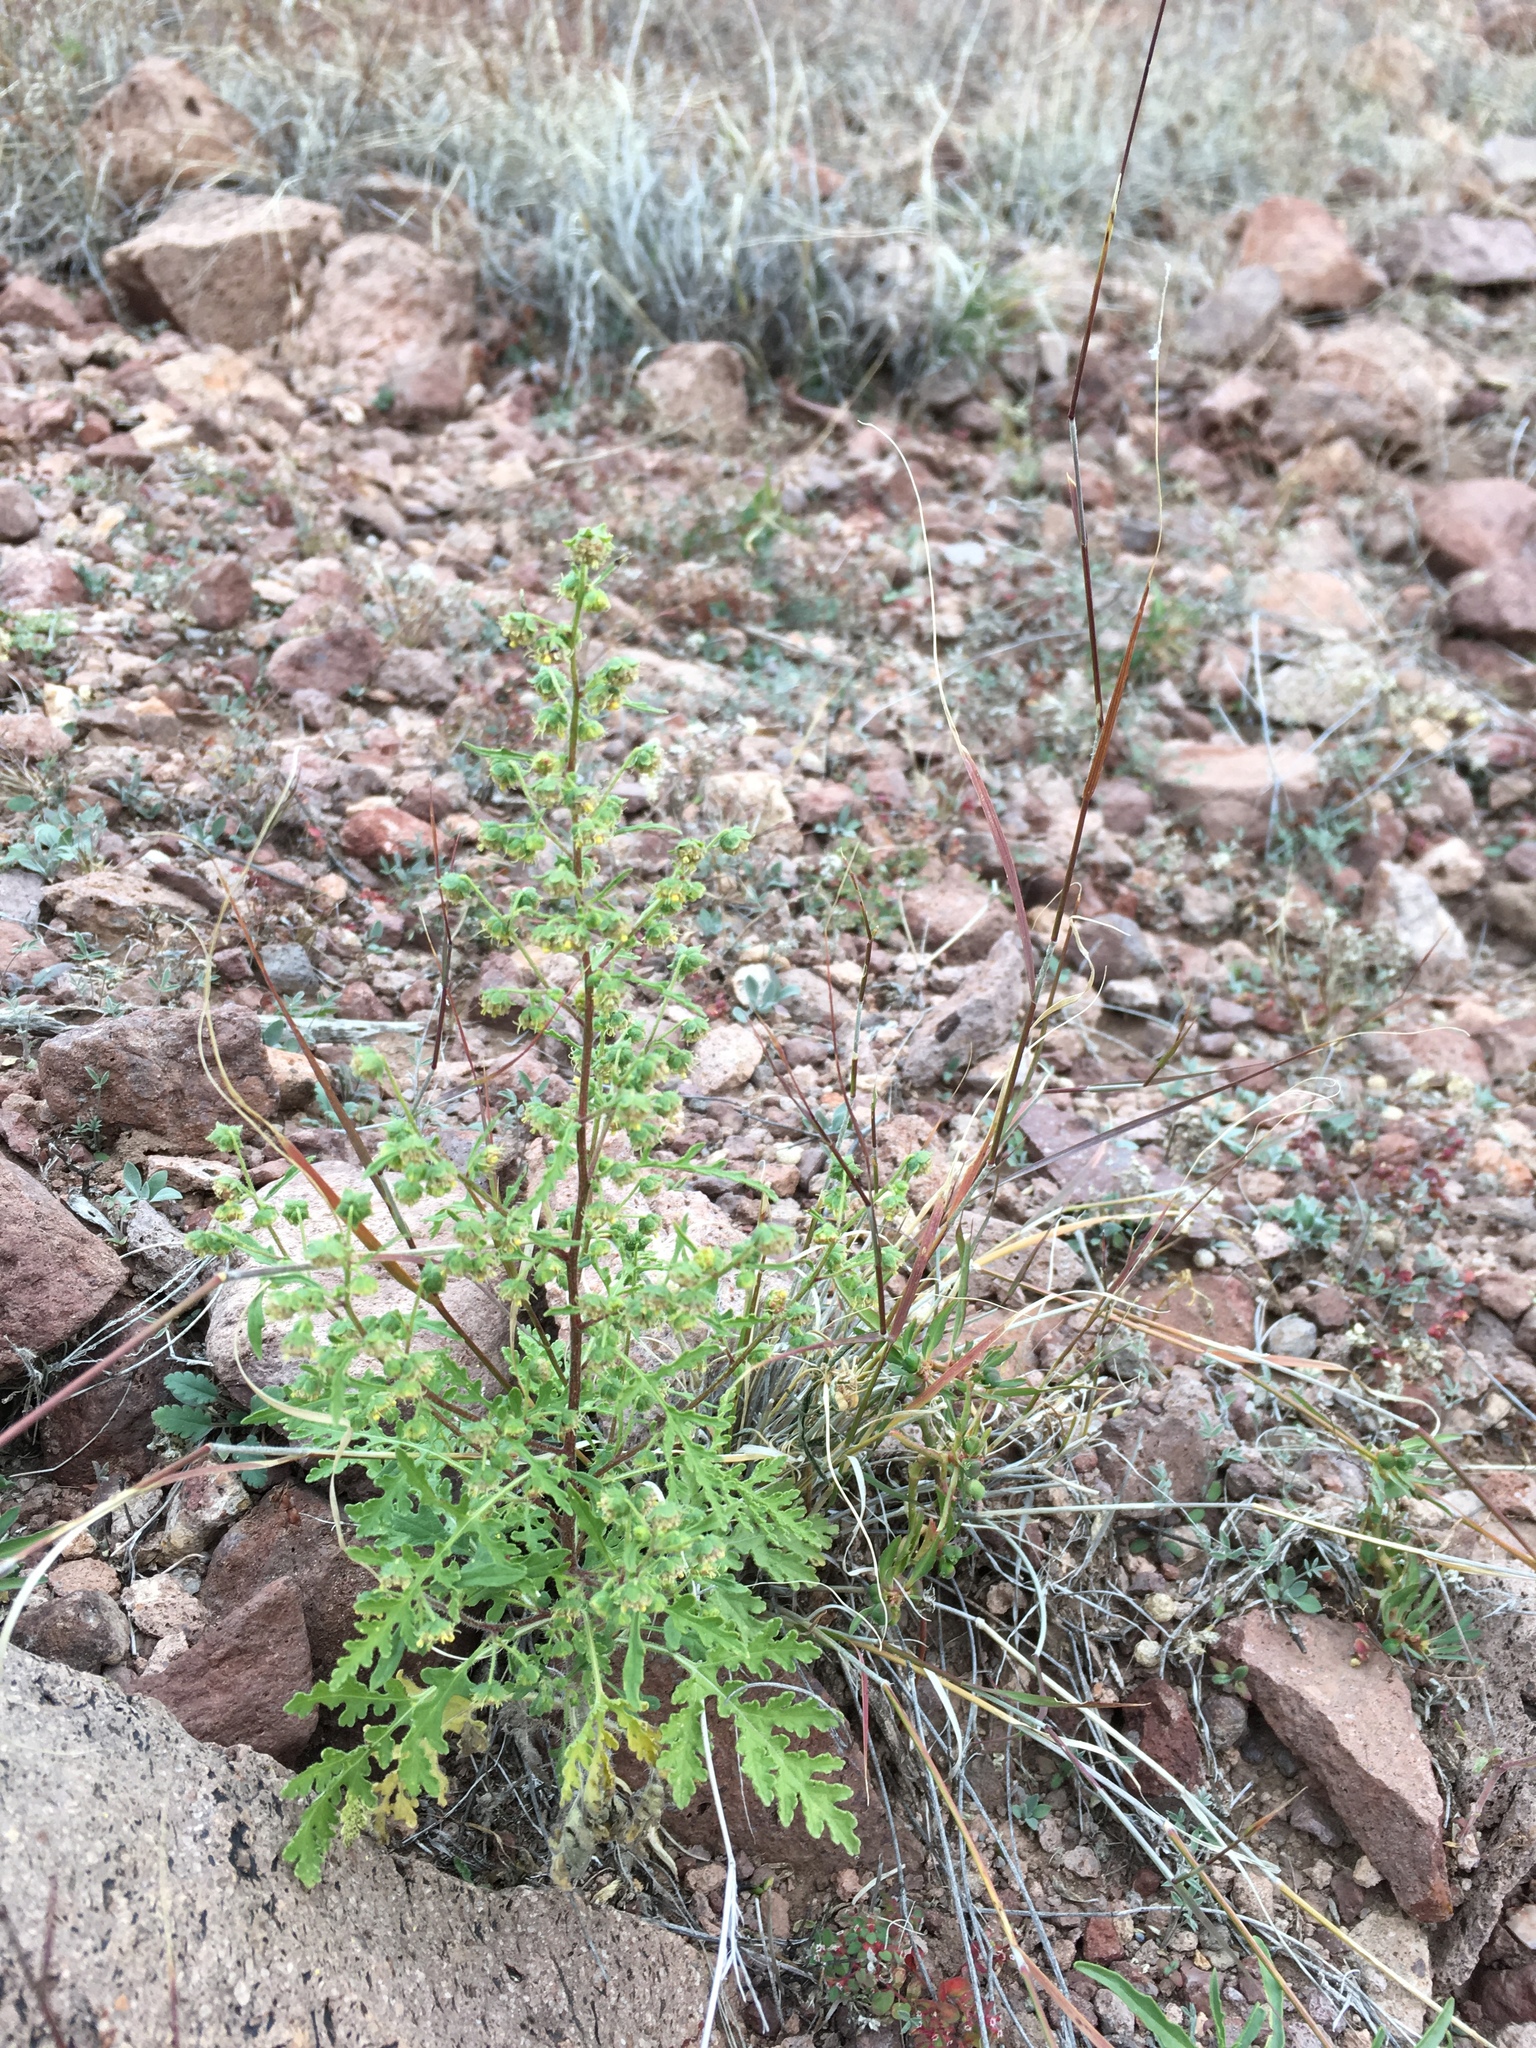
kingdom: Plantae
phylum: Tracheophyta
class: Magnoliopsida
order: Asterales
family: Asteraceae
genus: Hedosyne
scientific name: Hedosyne ambrosiifolia
